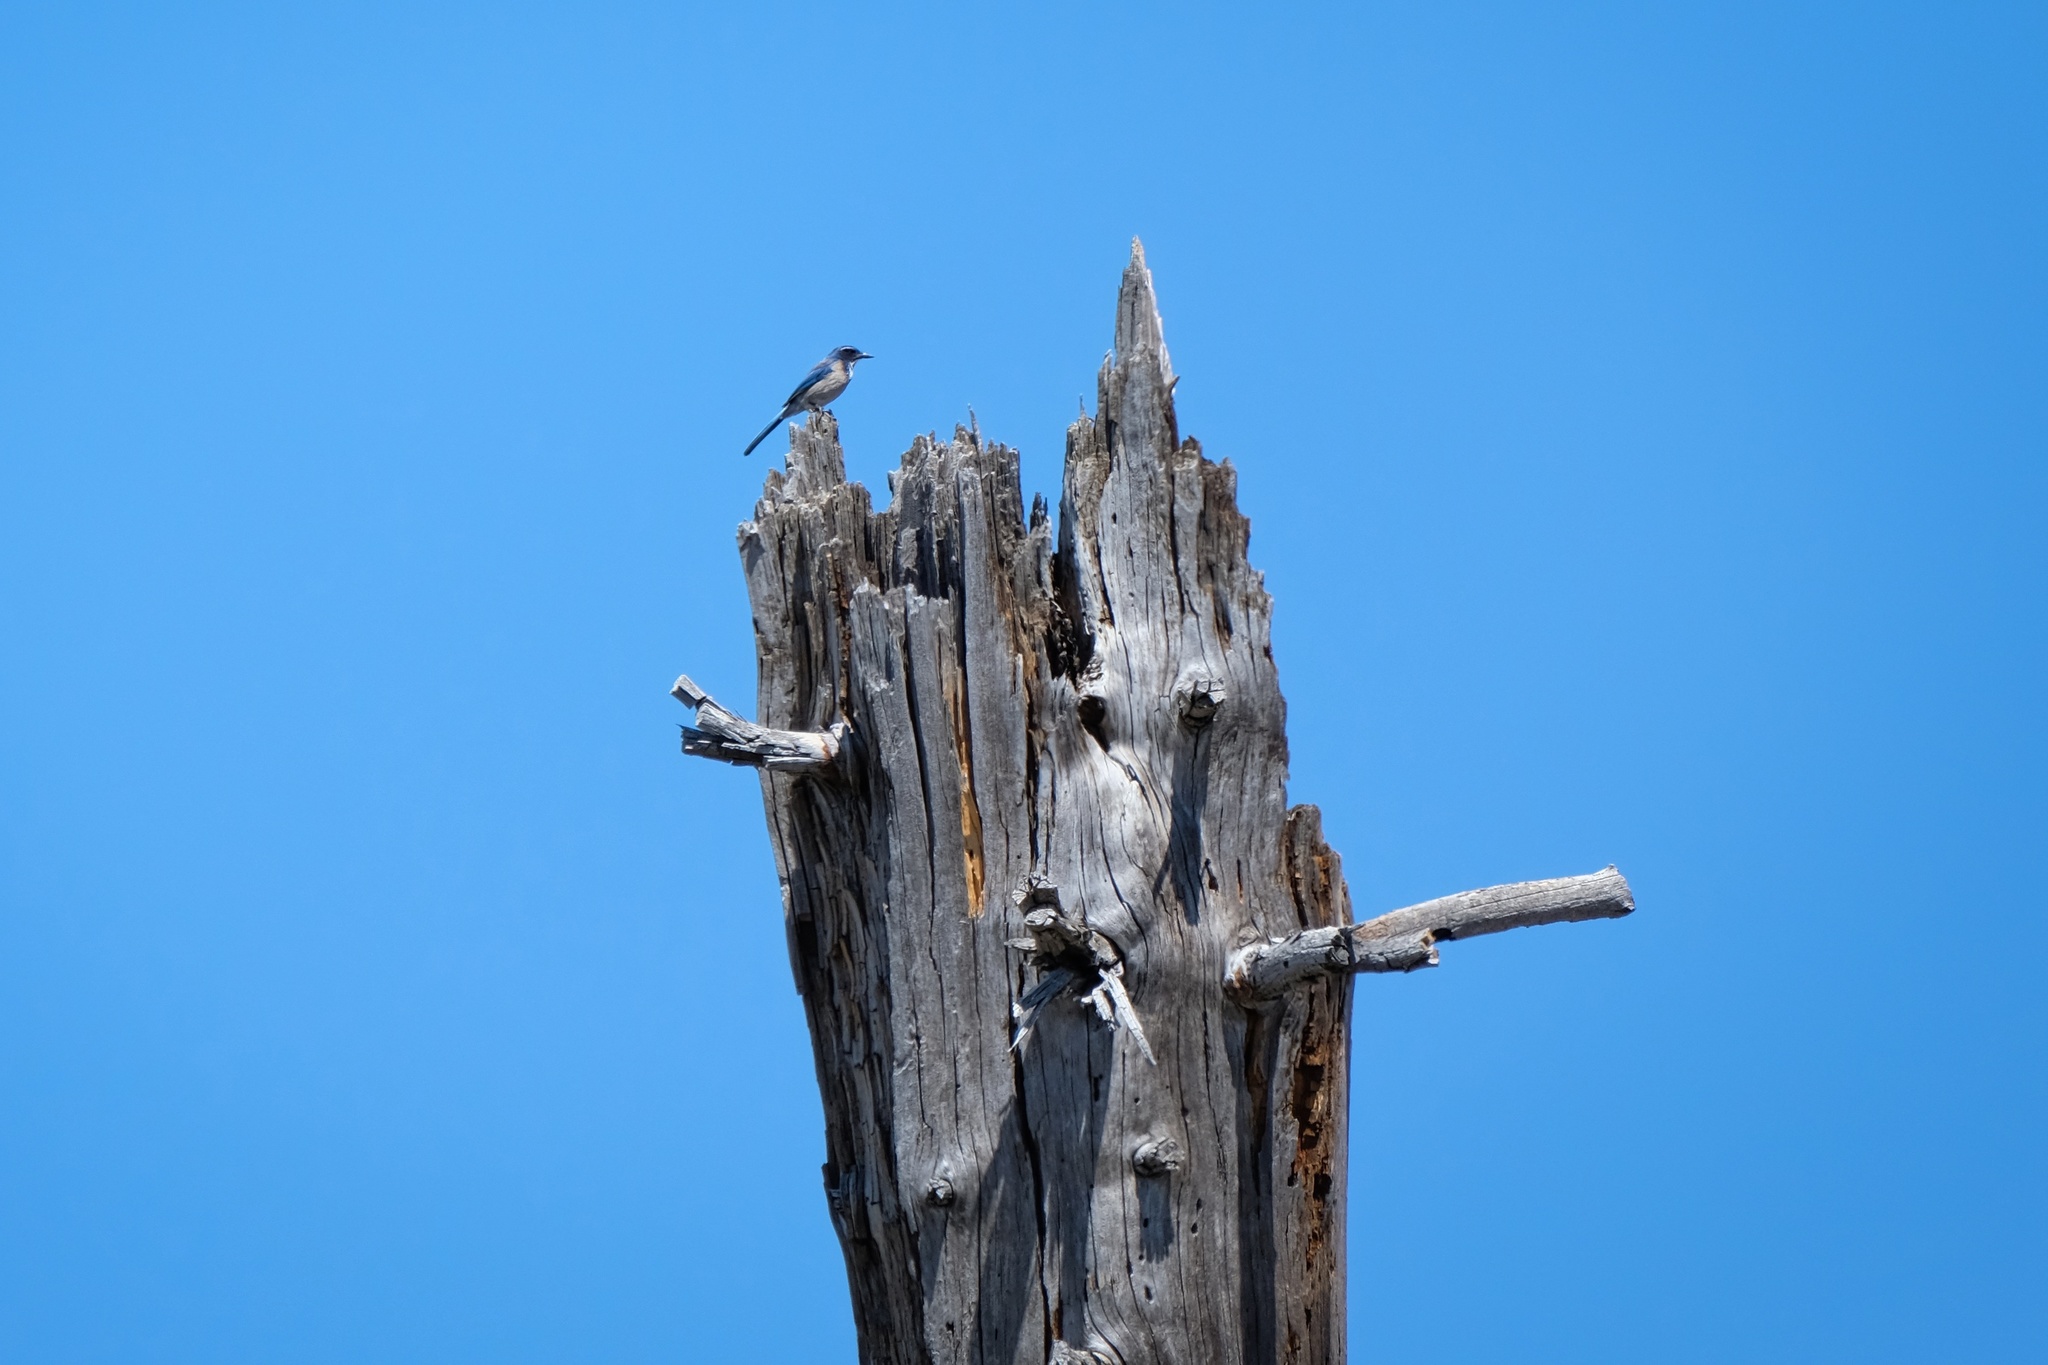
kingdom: Animalia
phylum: Chordata
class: Aves
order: Passeriformes
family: Corvidae
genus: Aphelocoma
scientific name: Aphelocoma californica
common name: California scrub-jay
